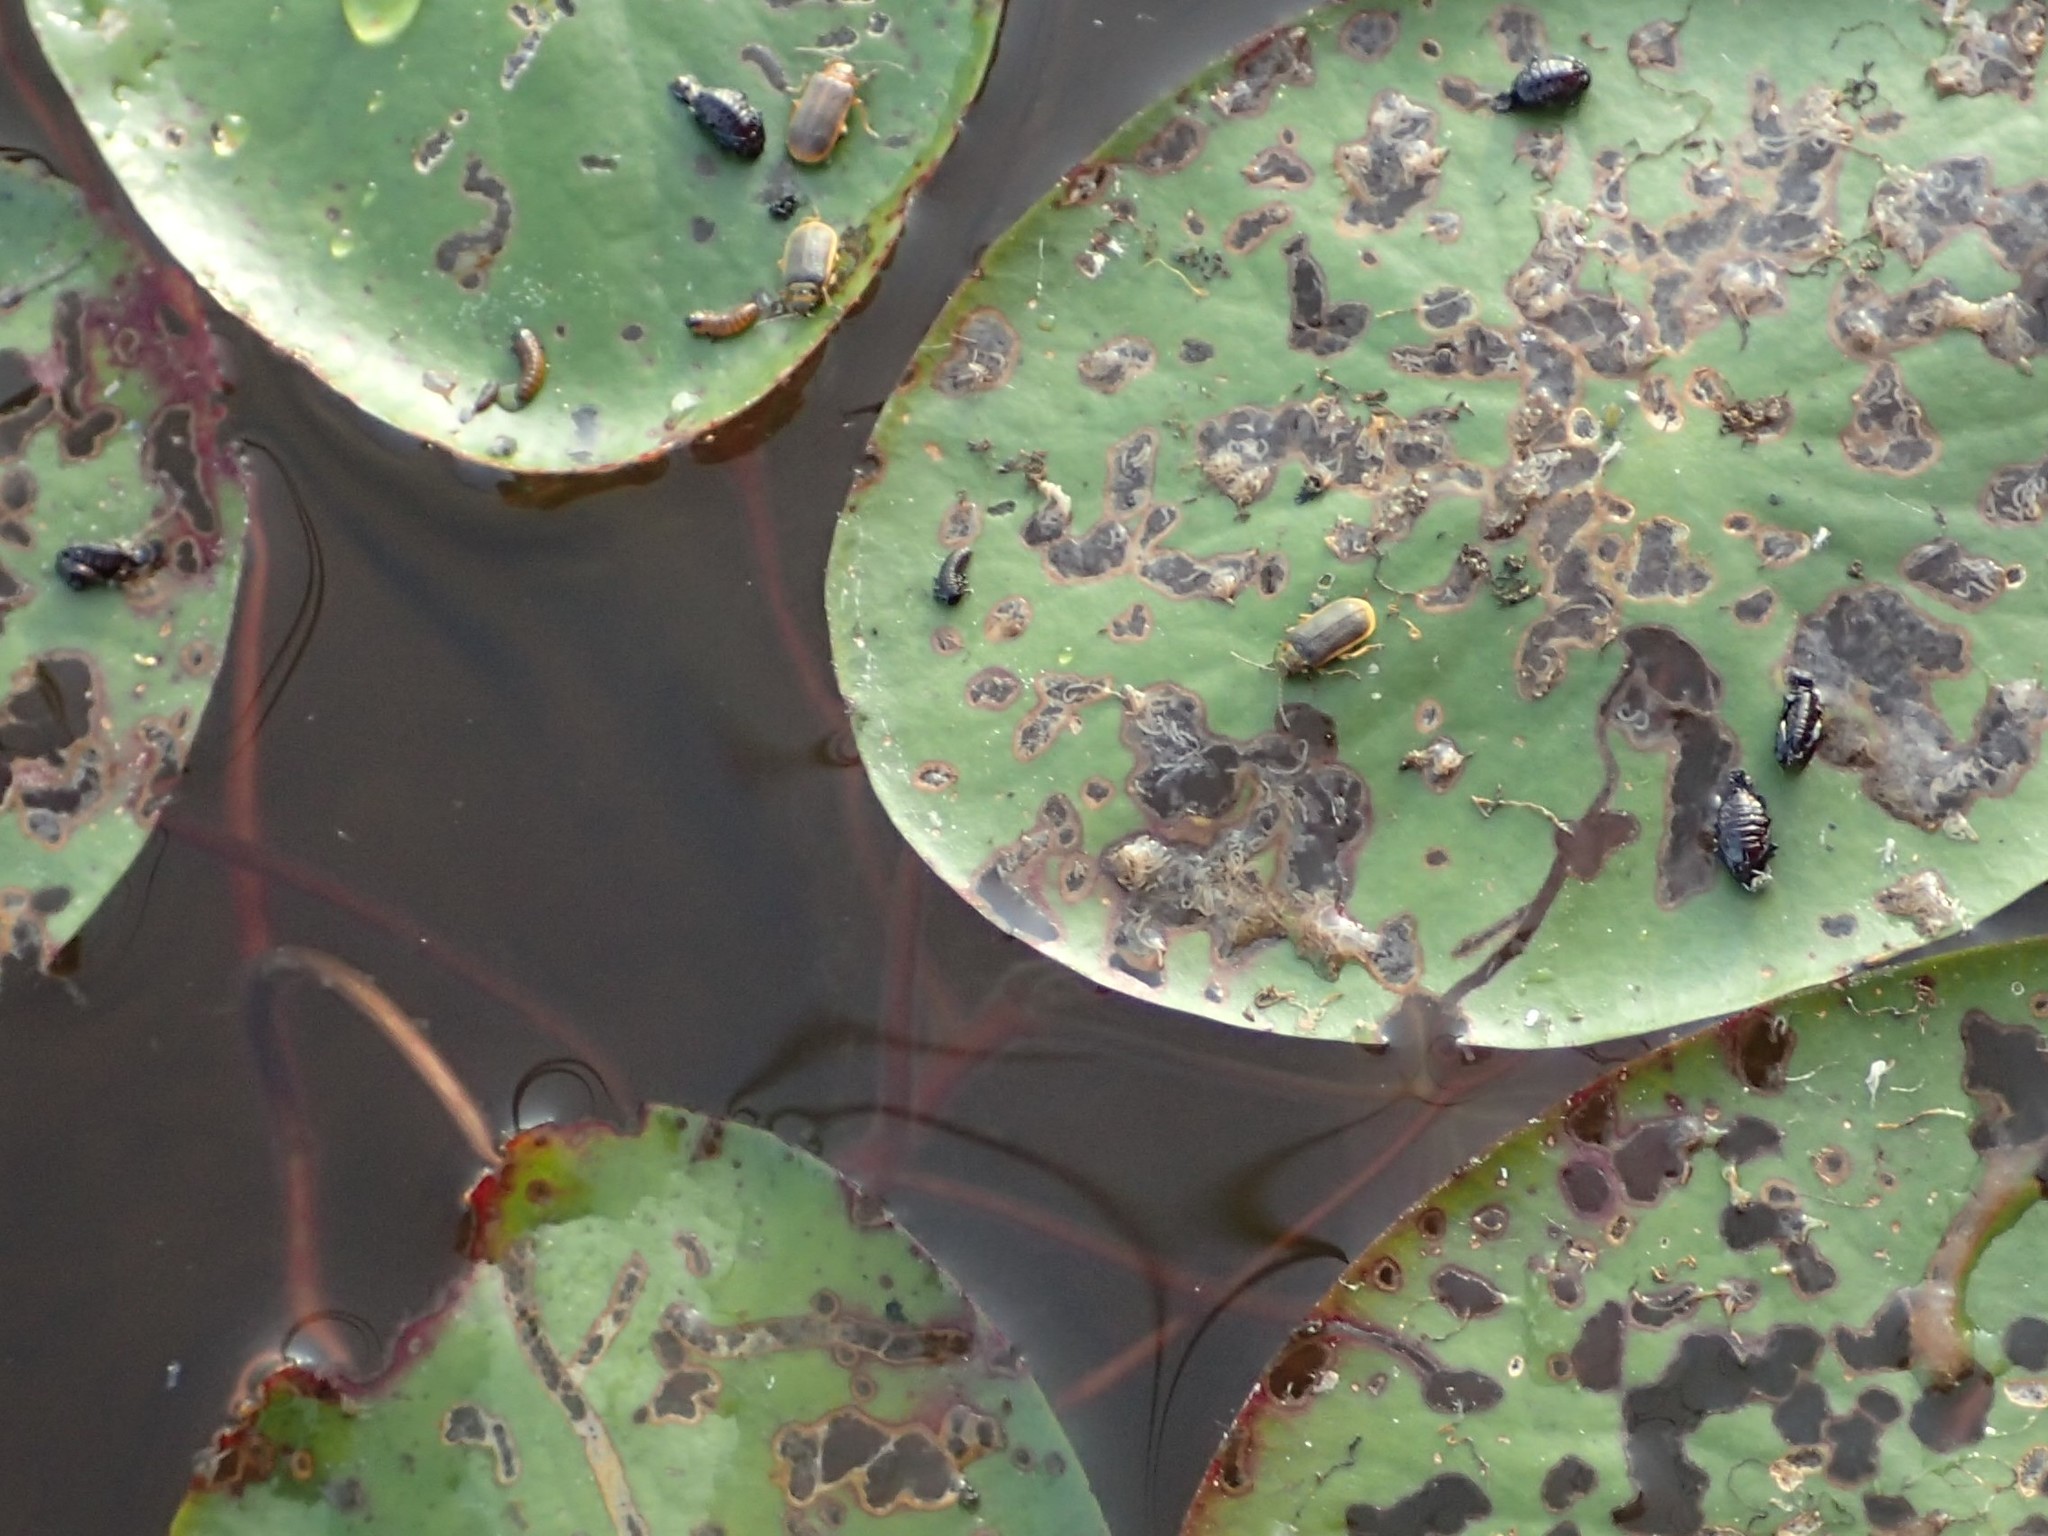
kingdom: Animalia
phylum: Arthropoda
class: Insecta
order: Coleoptera
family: Chrysomelidae
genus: Galerucella
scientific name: Galerucella nymphaeae
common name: Leaf beetle
